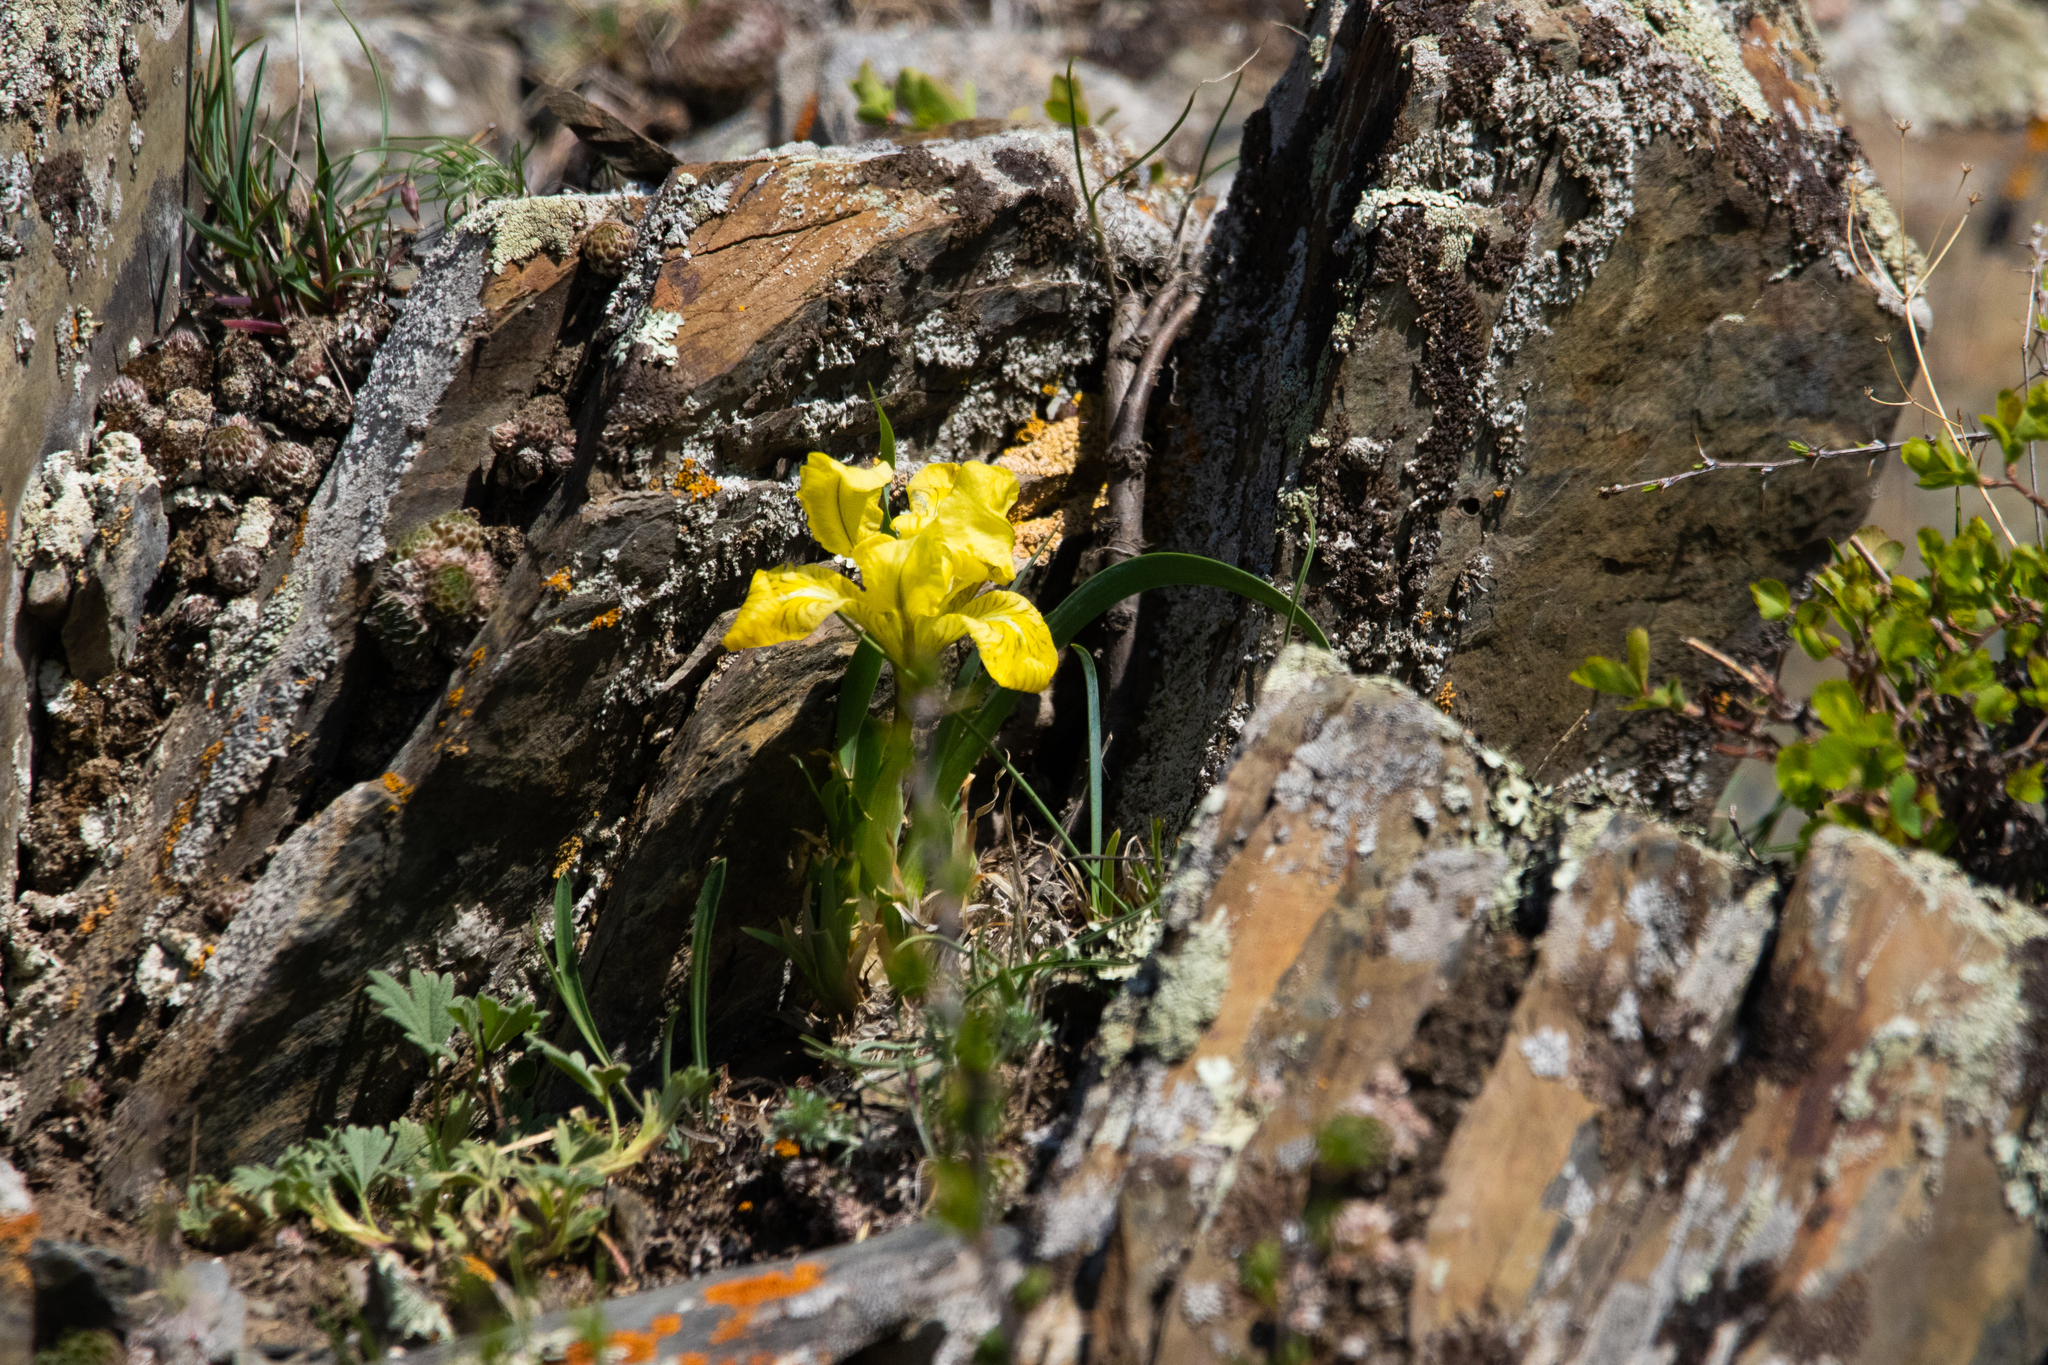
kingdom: Plantae
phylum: Tracheophyta
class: Liliopsida
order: Asparagales
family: Iridaceae
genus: Iris
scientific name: Iris humilis
